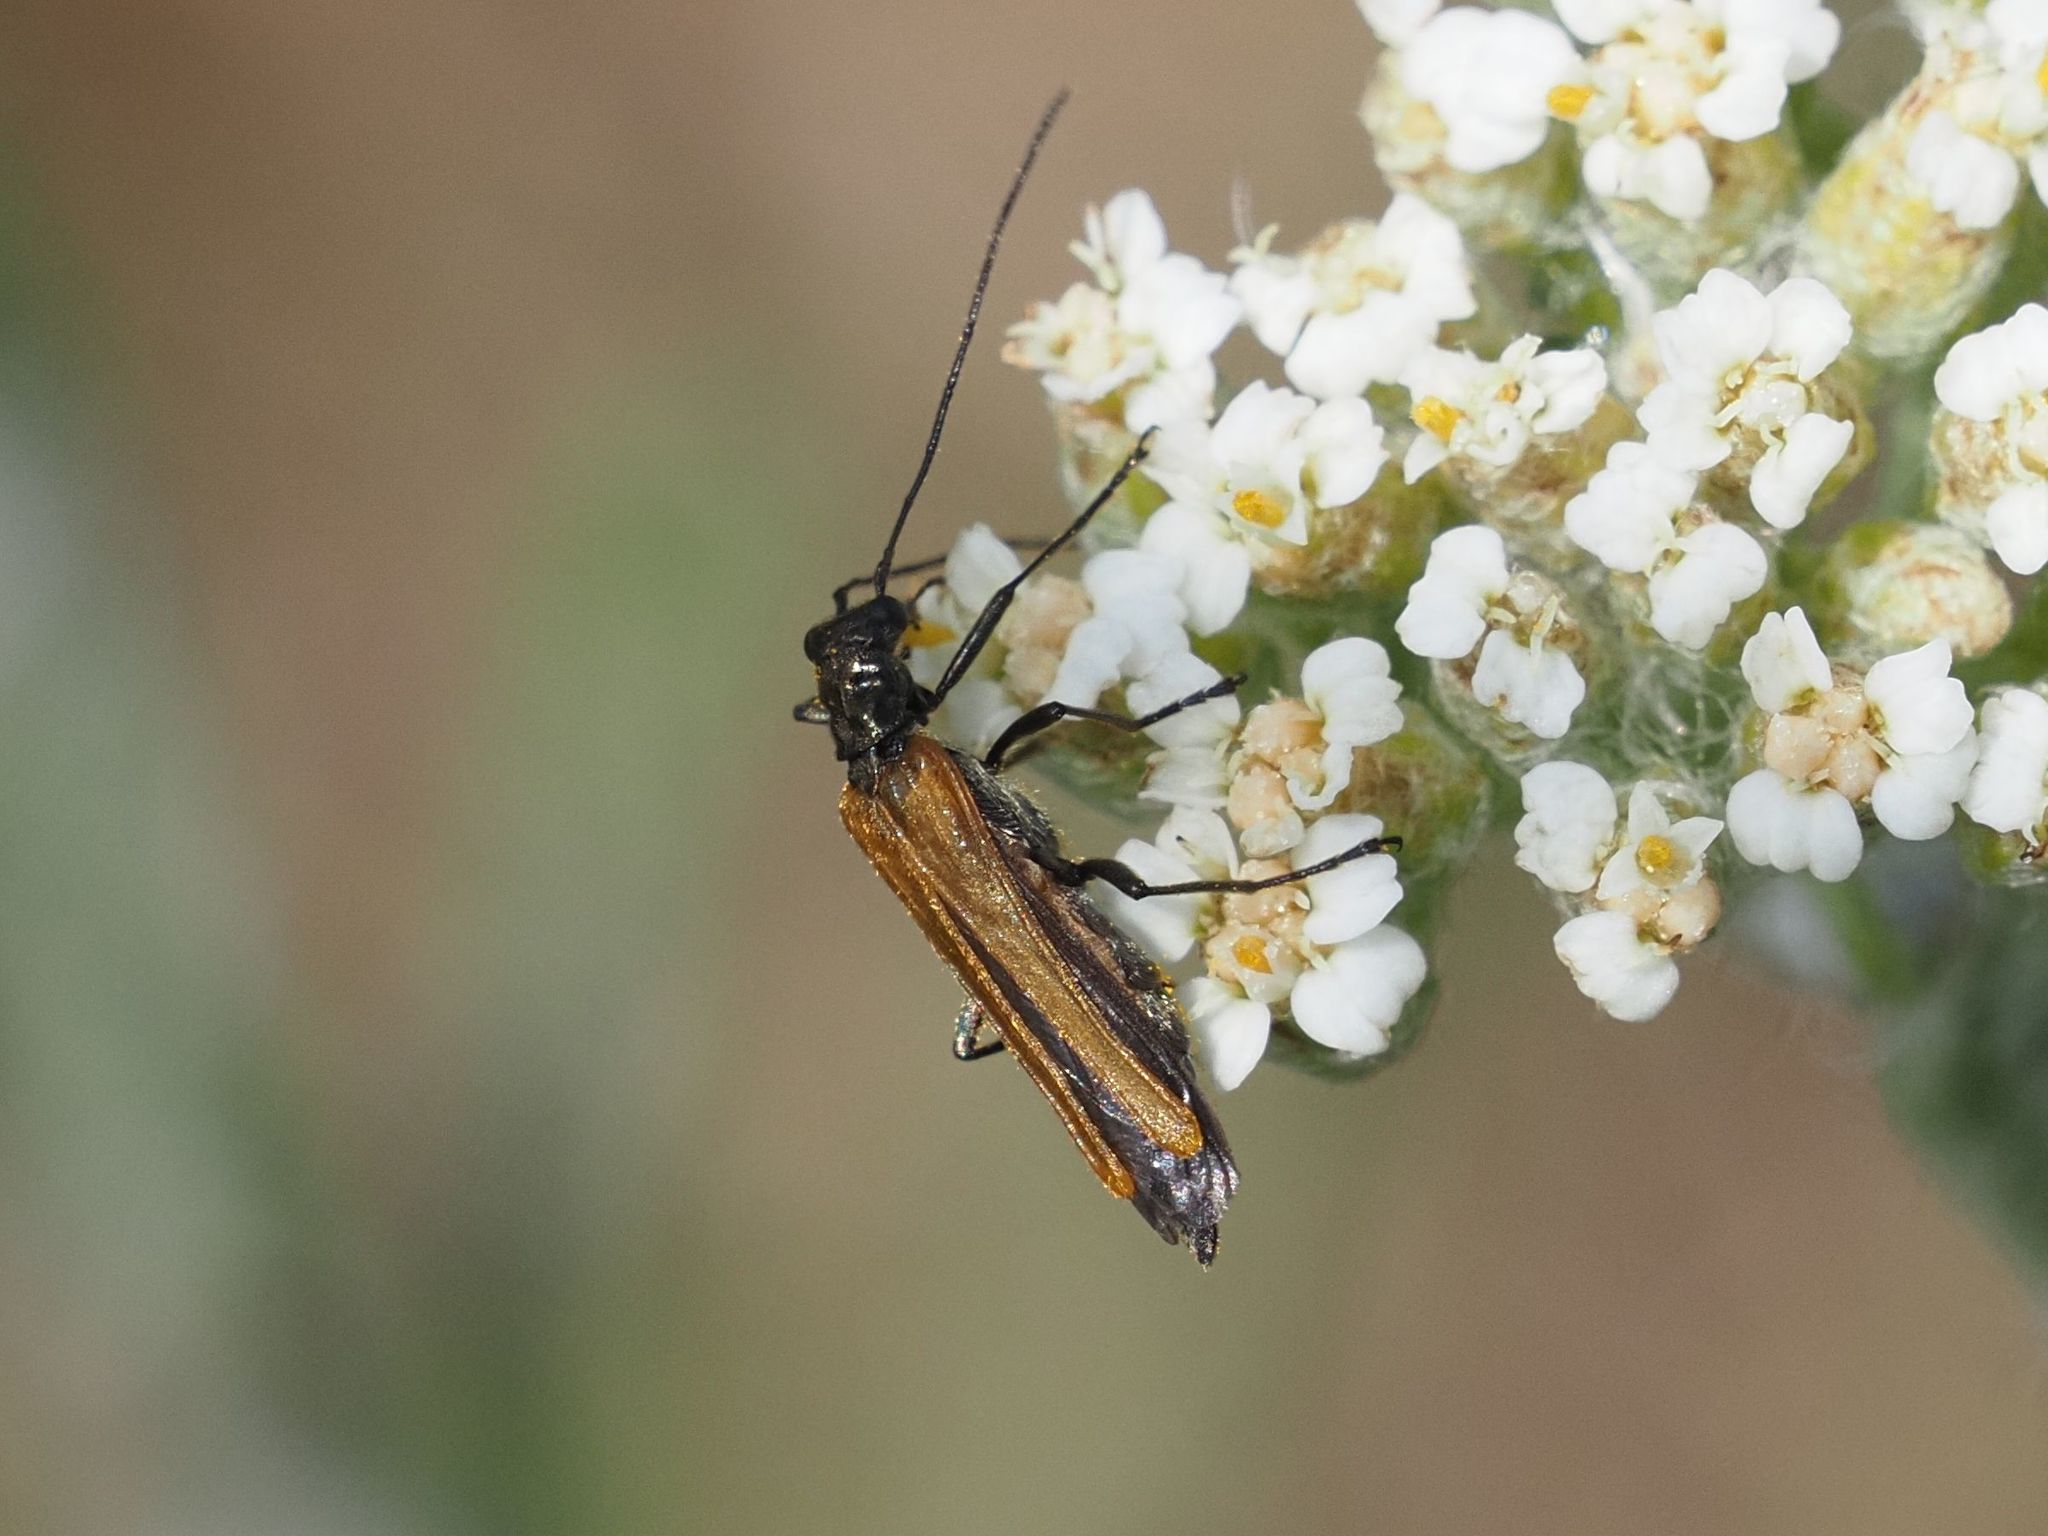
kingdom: Animalia
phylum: Arthropoda
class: Insecta
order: Coleoptera
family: Oedemeridae
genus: Oedemera
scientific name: Oedemera femorata
